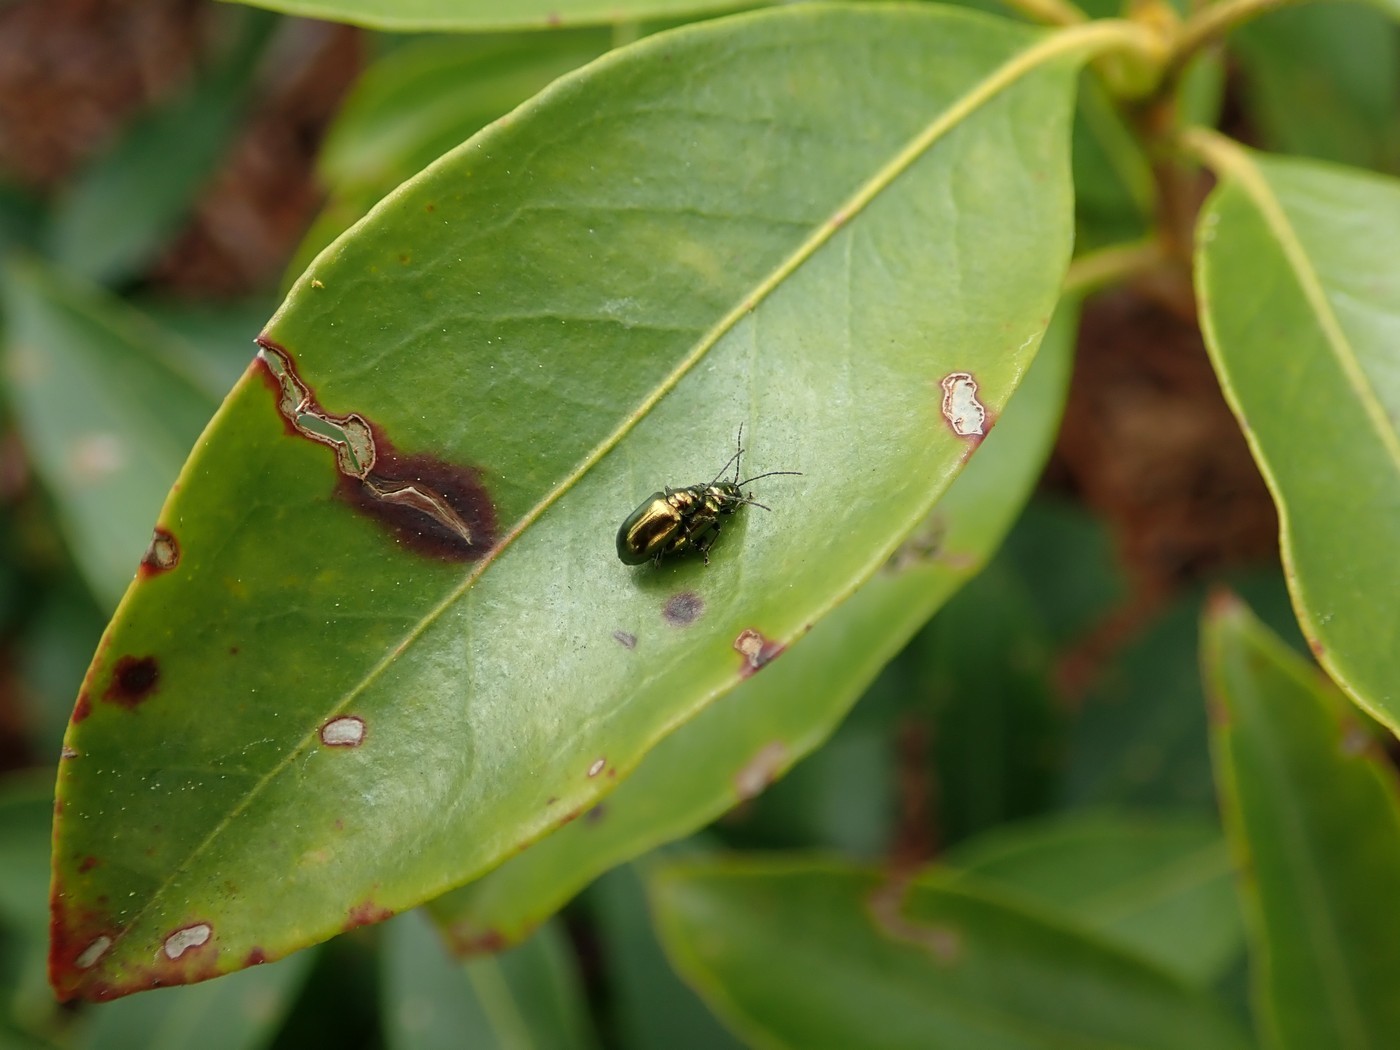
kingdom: Animalia
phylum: Arthropoda
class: Insecta
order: Coleoptera
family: Chrysomelidae
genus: Altica
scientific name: Altica
